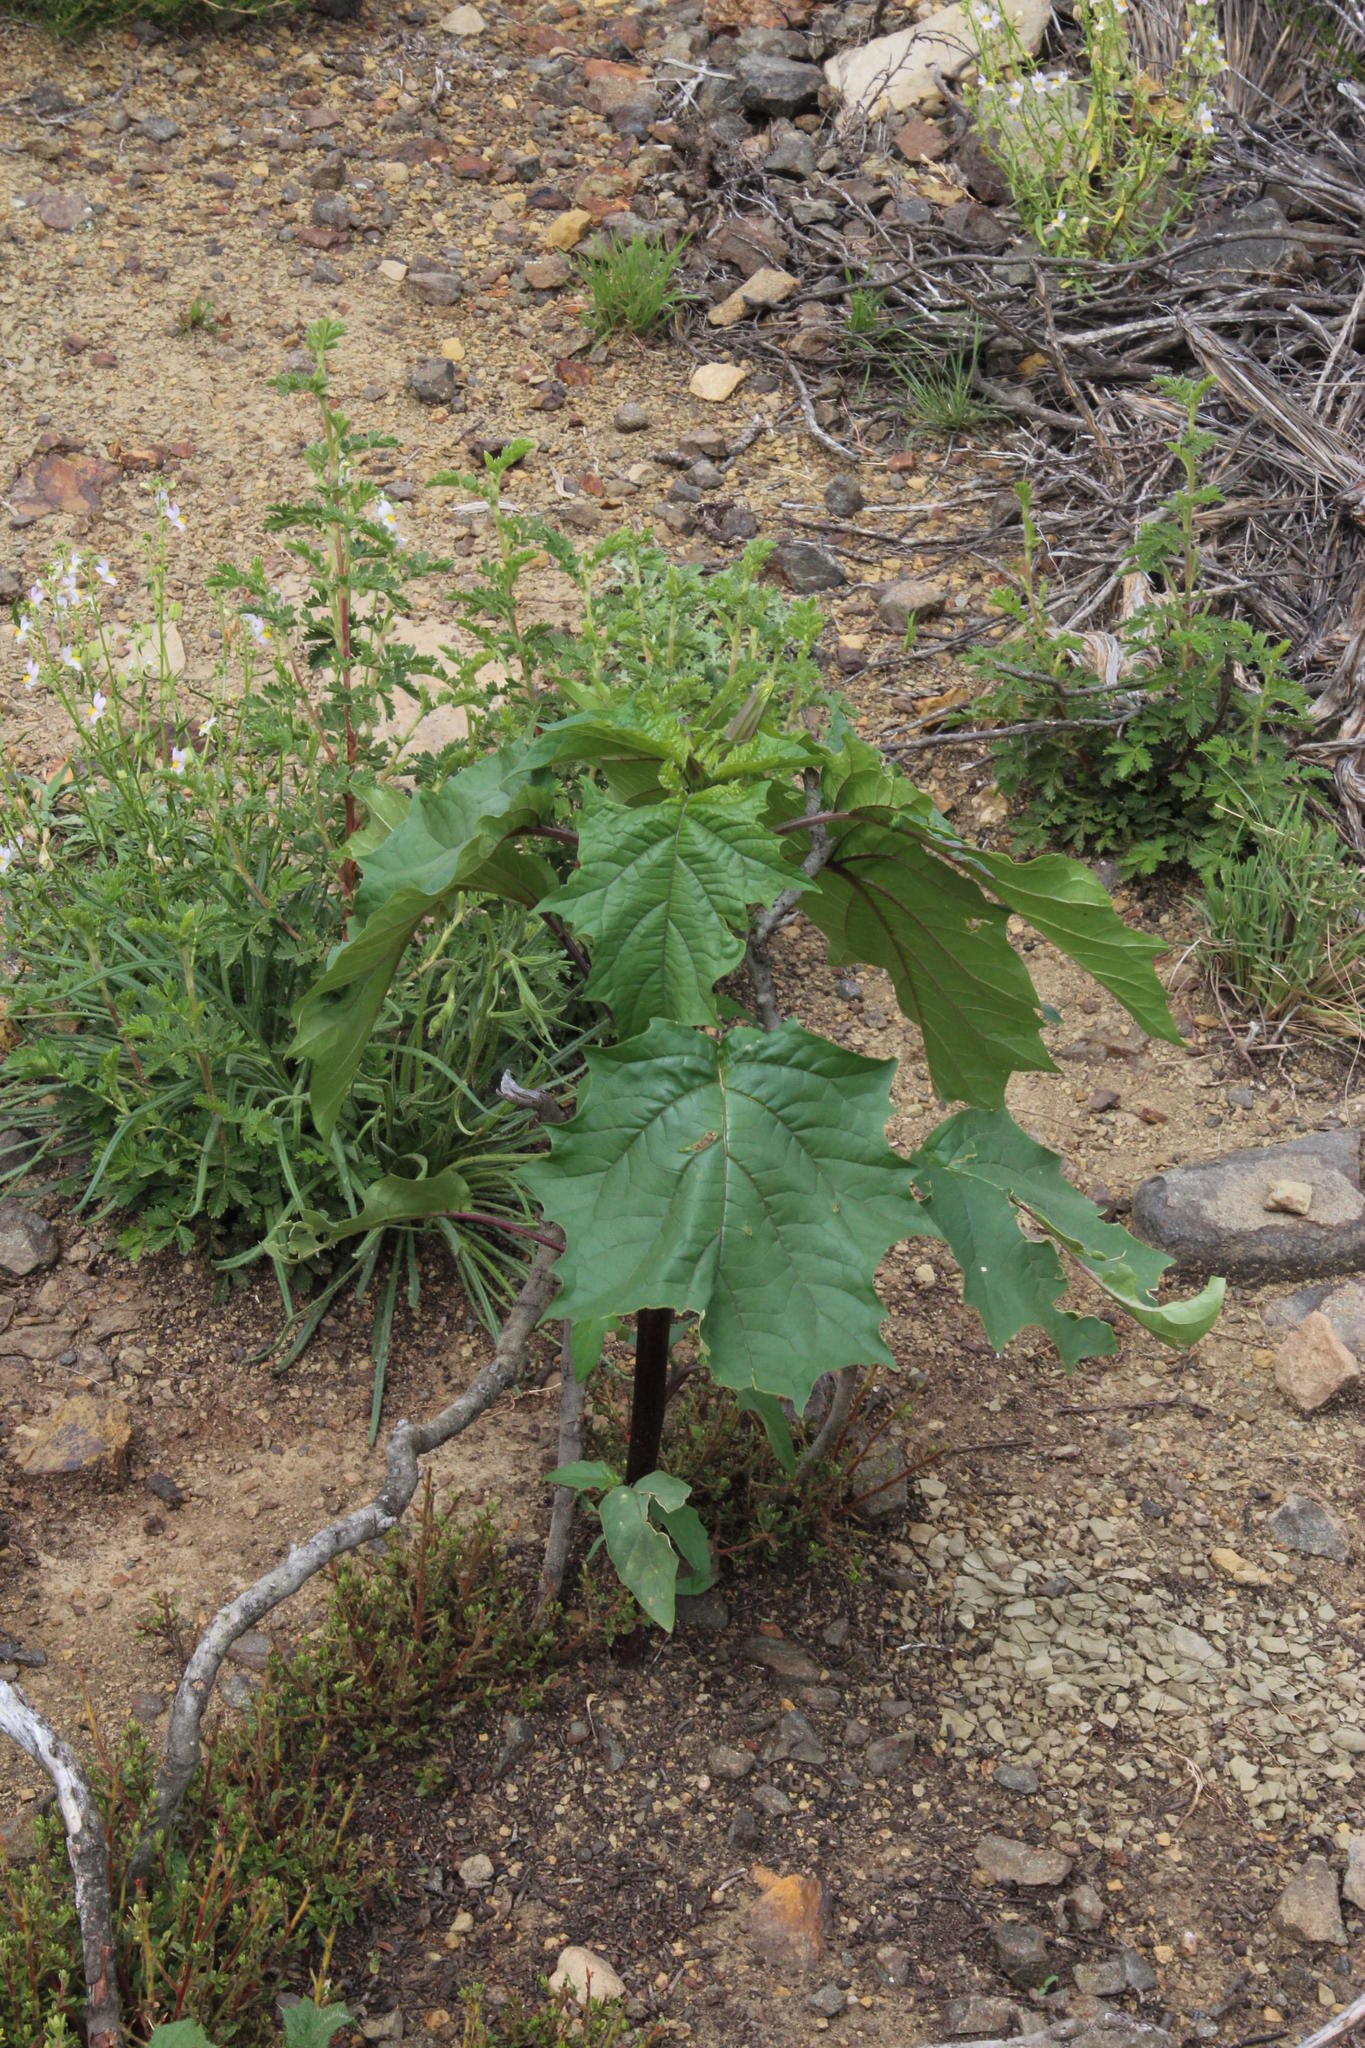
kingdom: Plantae
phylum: Tracheophyta
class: Magnoliopsida
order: Solanales
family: Solanaceae
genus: Datura
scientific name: Datura stramonium
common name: Thorn-apple
